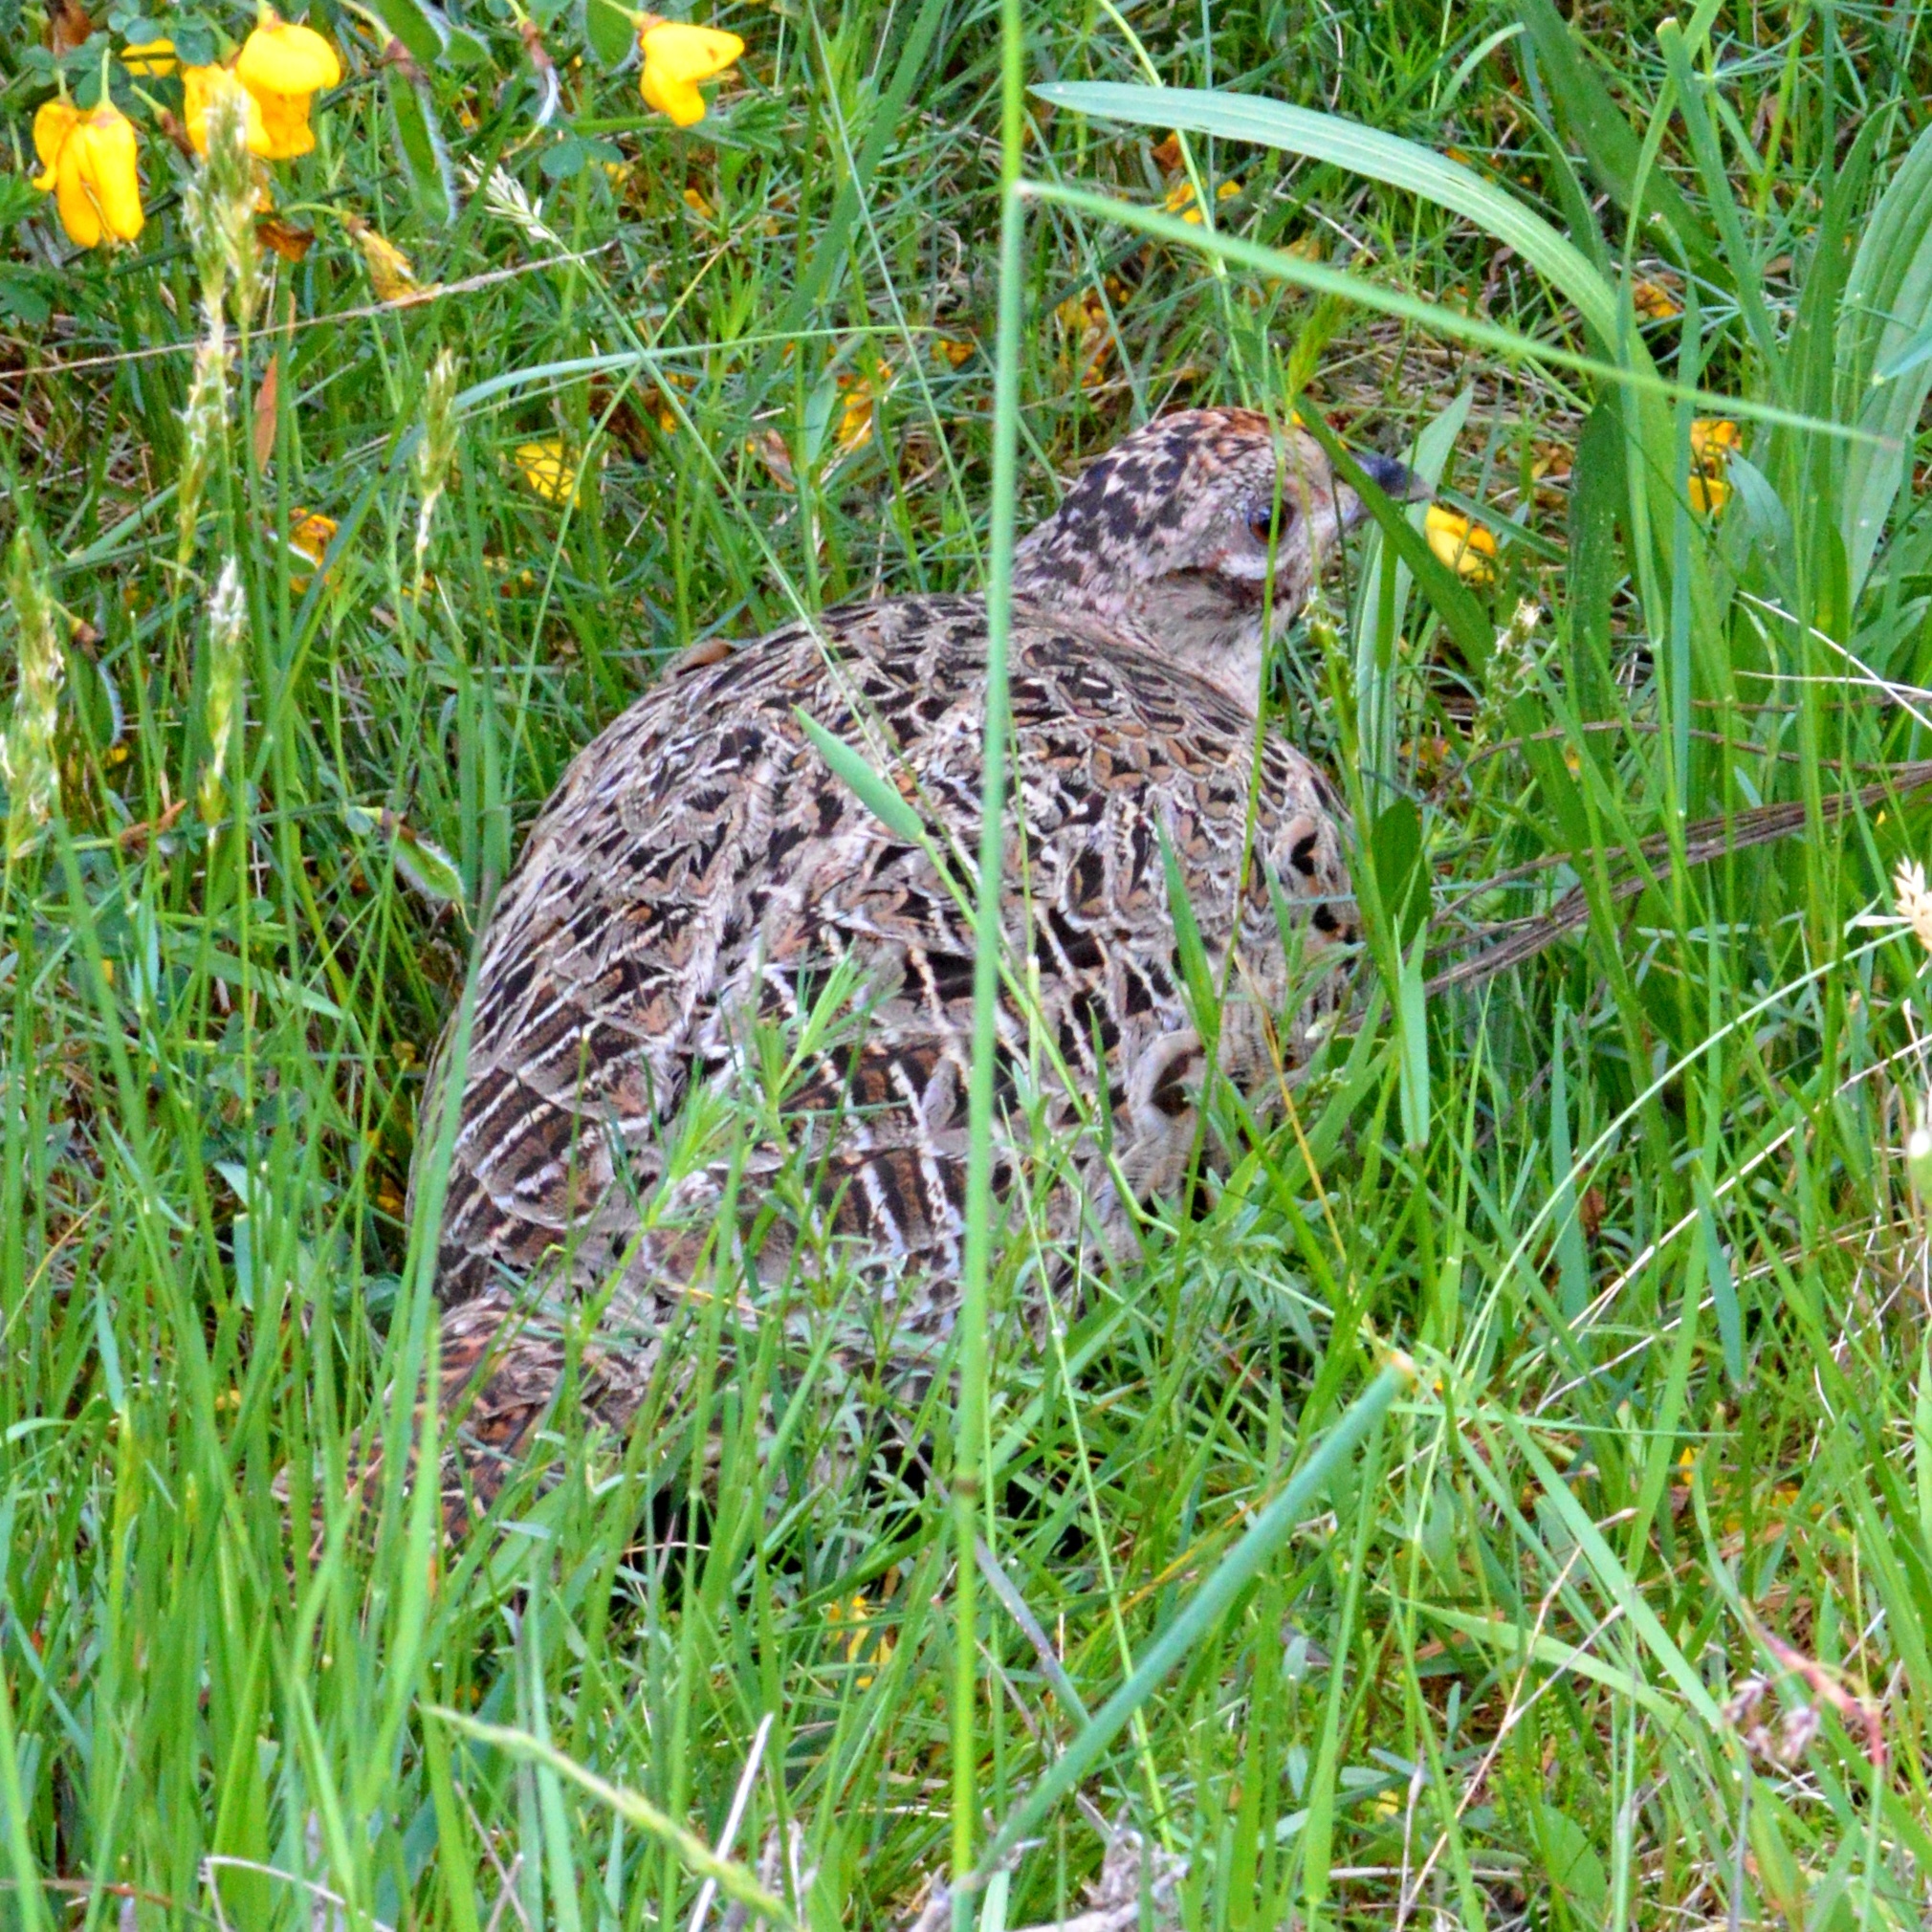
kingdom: Animalia
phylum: Chordata
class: Aves
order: Galliformes
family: Phasianidae
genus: Phasianus
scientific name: Phasianus colchicus
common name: Common pheasant
